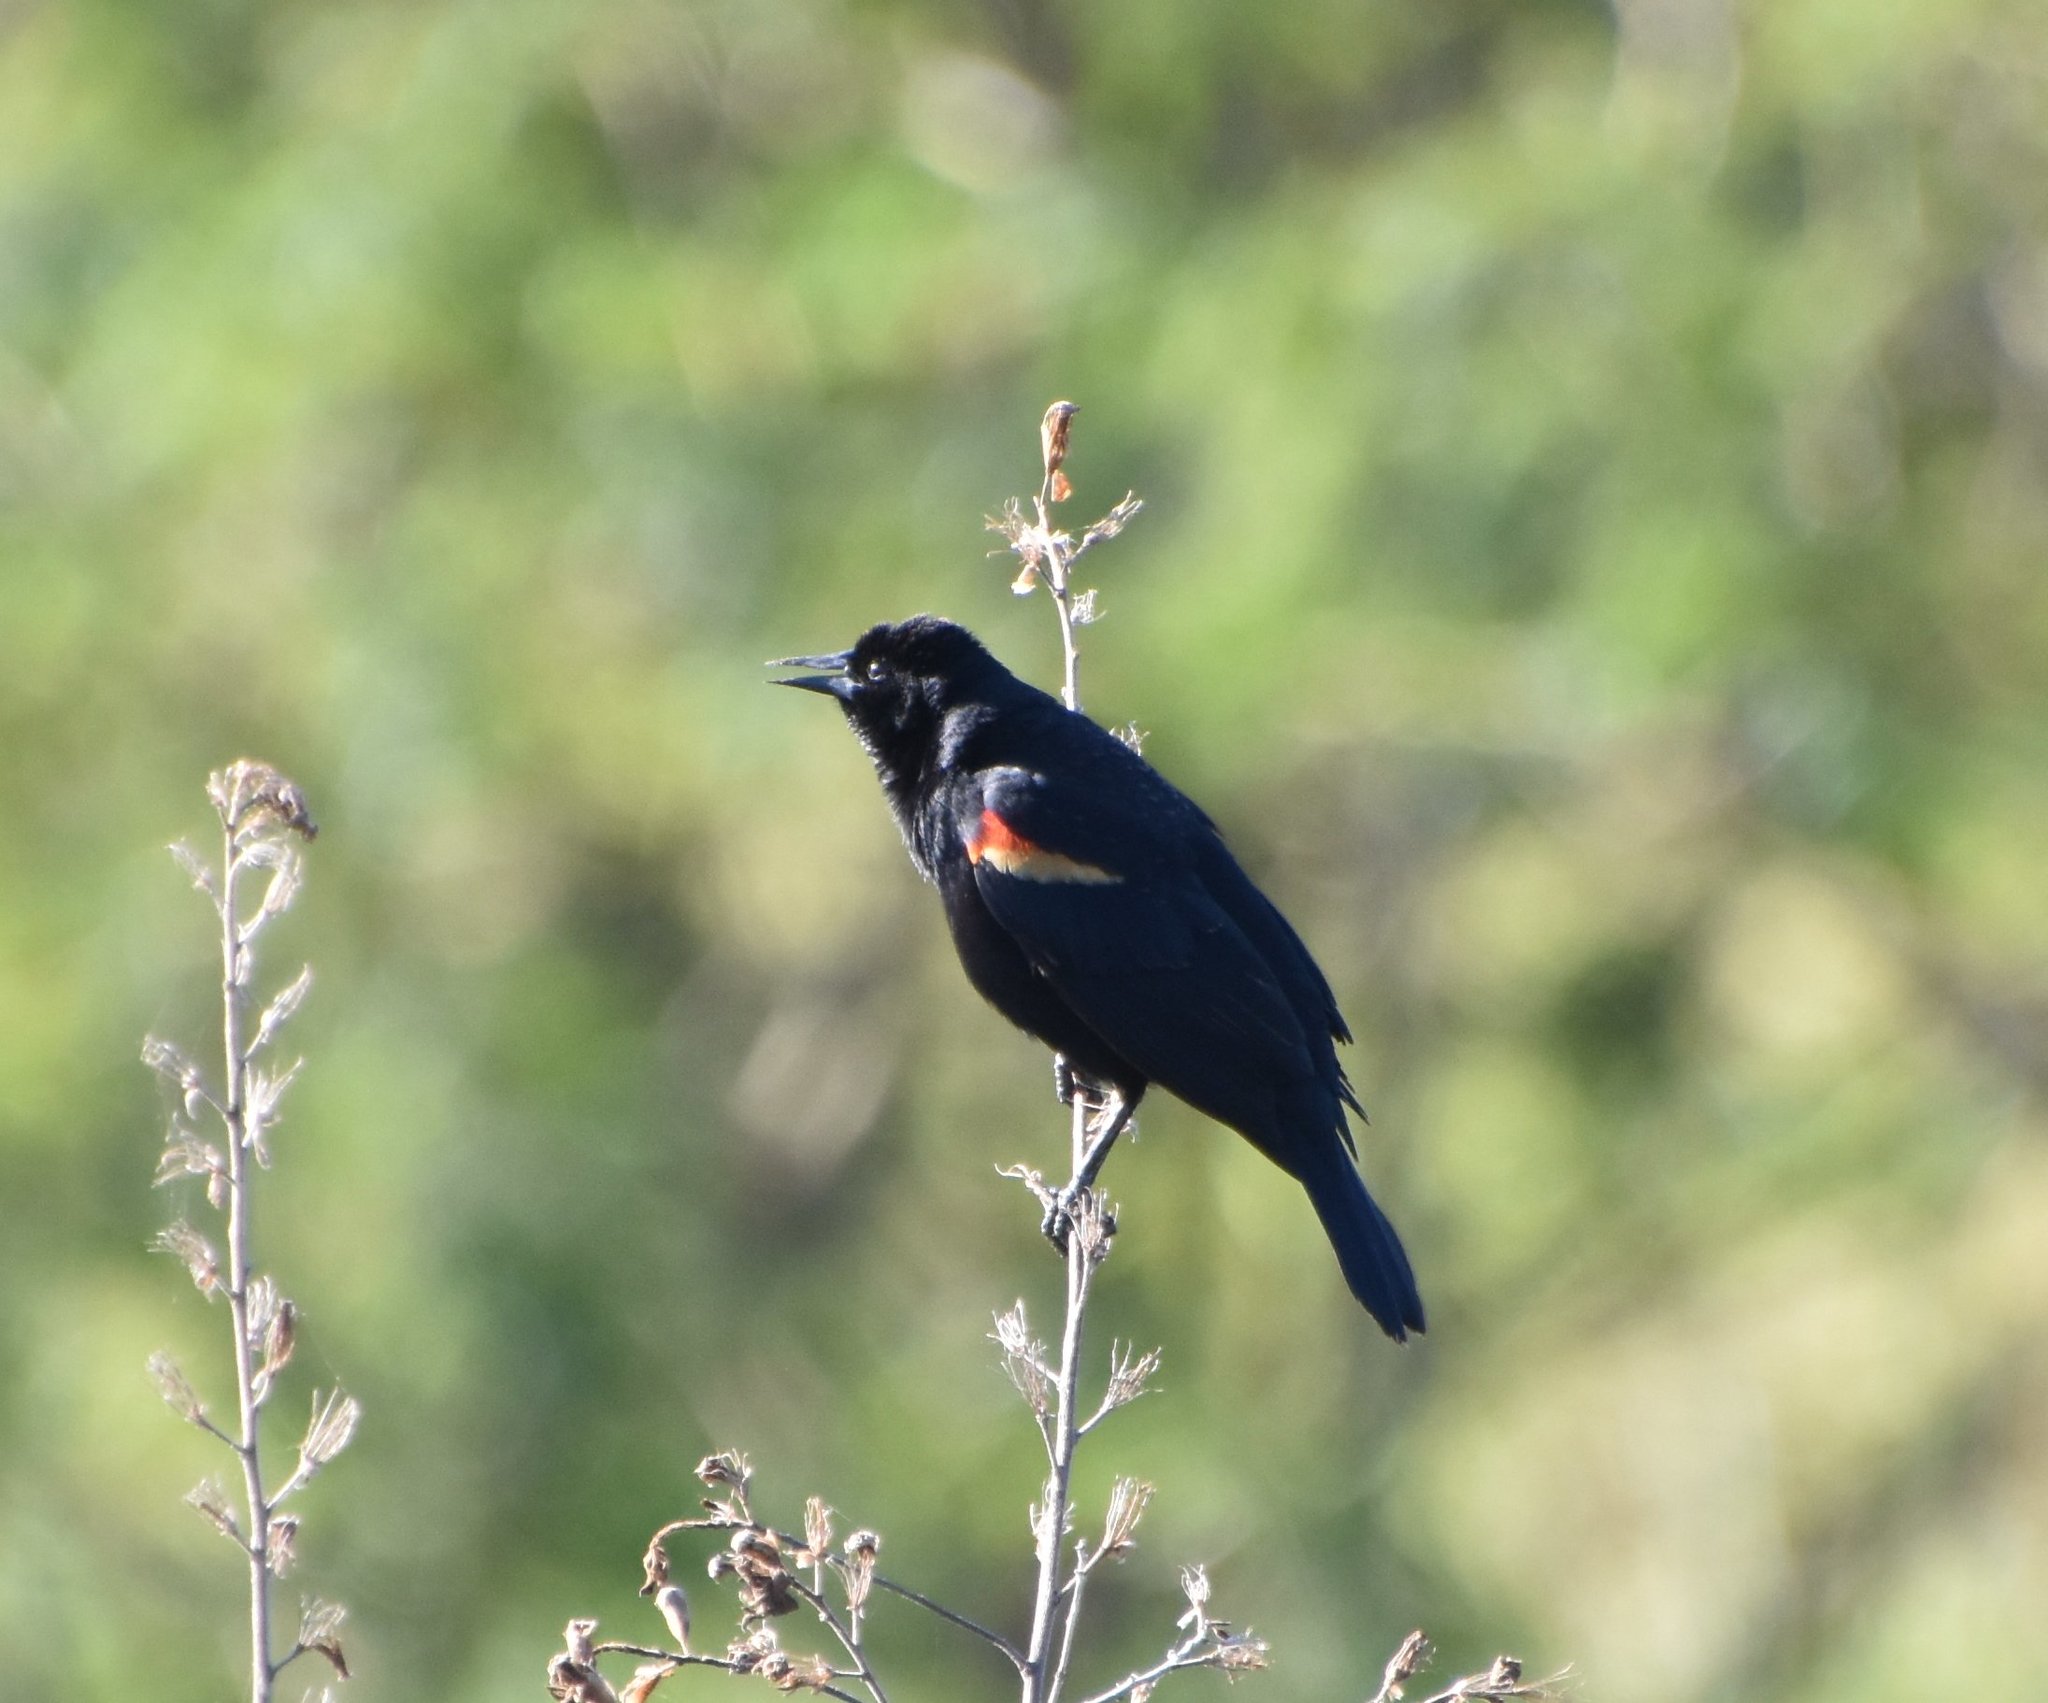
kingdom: Animalia
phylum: Chordata
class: Aves
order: Passeriformes
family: Icteridae
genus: Agelaius
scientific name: Agelaius phoeniceus
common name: Red-winged blackbird
